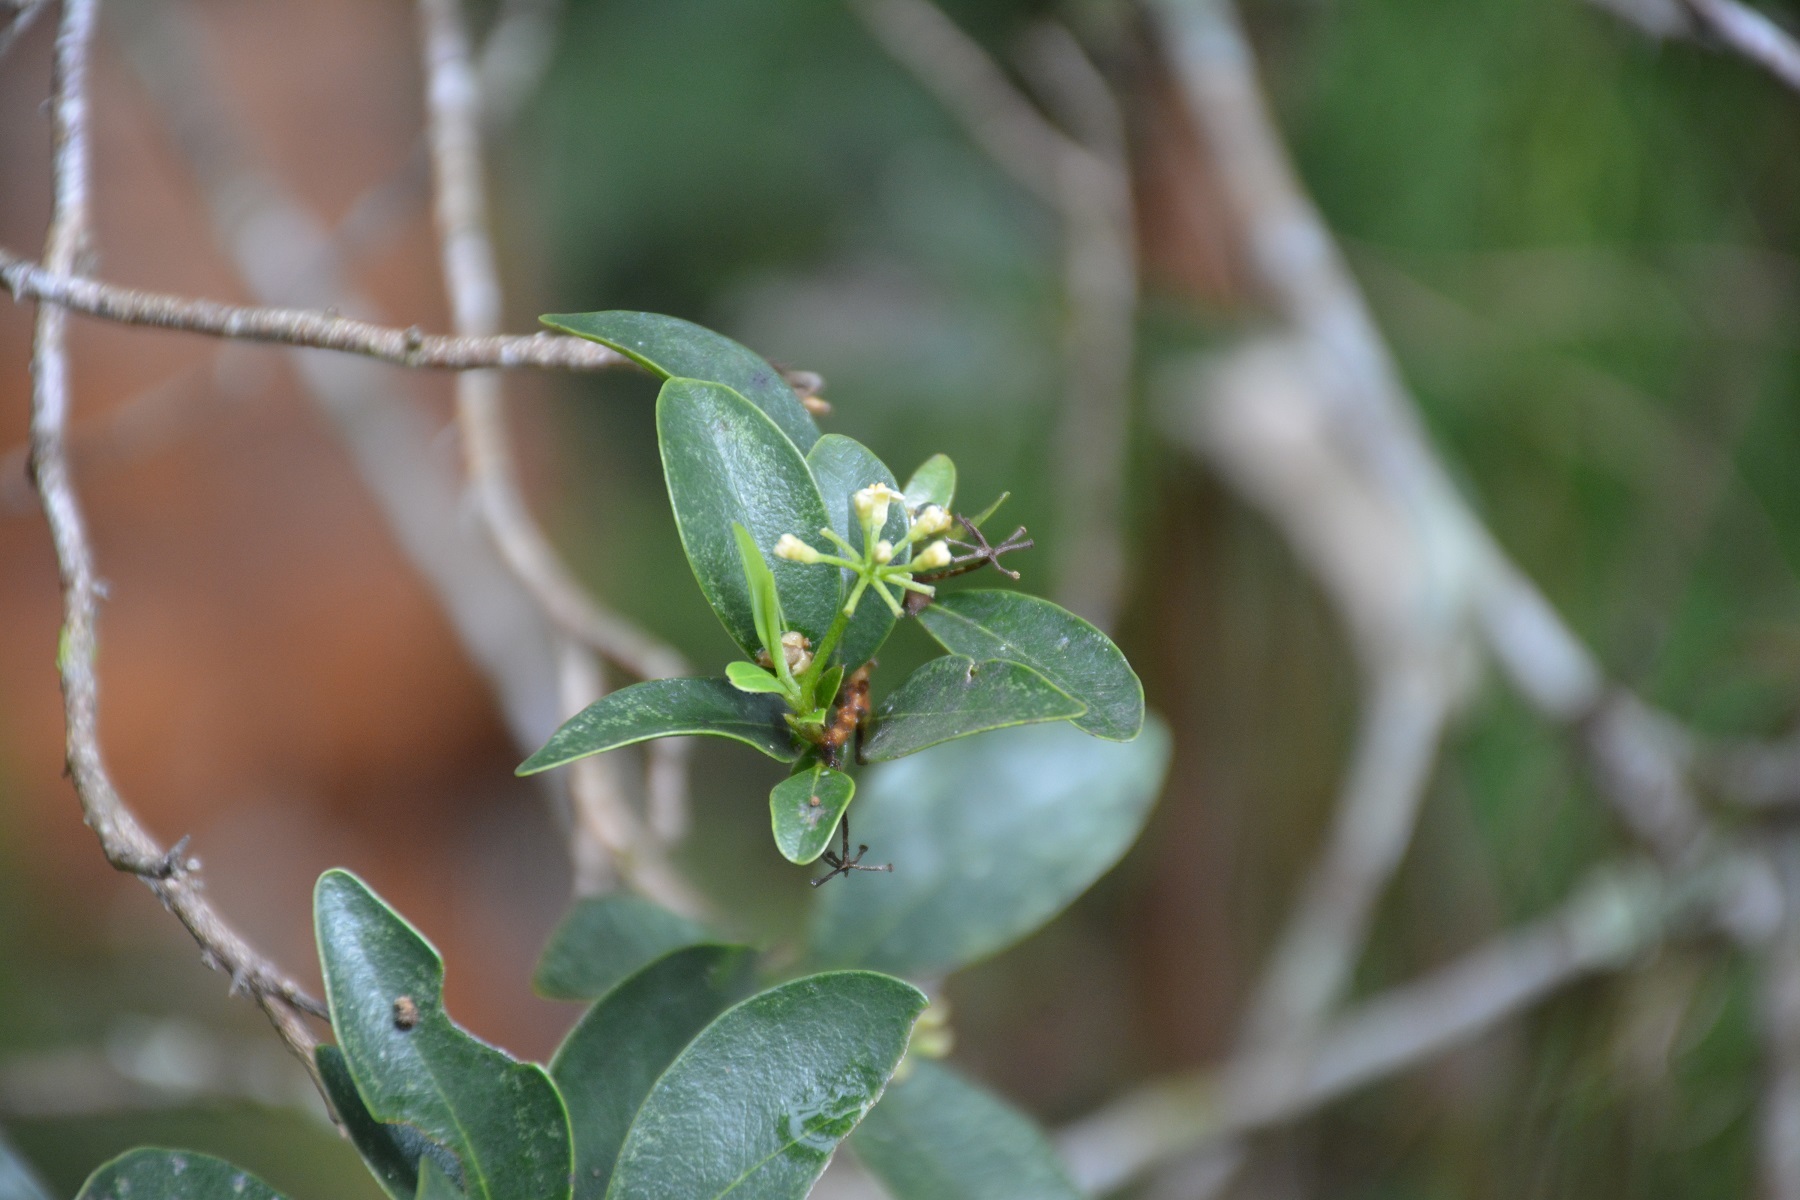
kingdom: Plantae
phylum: Tracheophyta
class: Magnoliopsida
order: Malvales
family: Thymelaeaceae
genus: Daphnopsis
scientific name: Daphnopsis ficina
